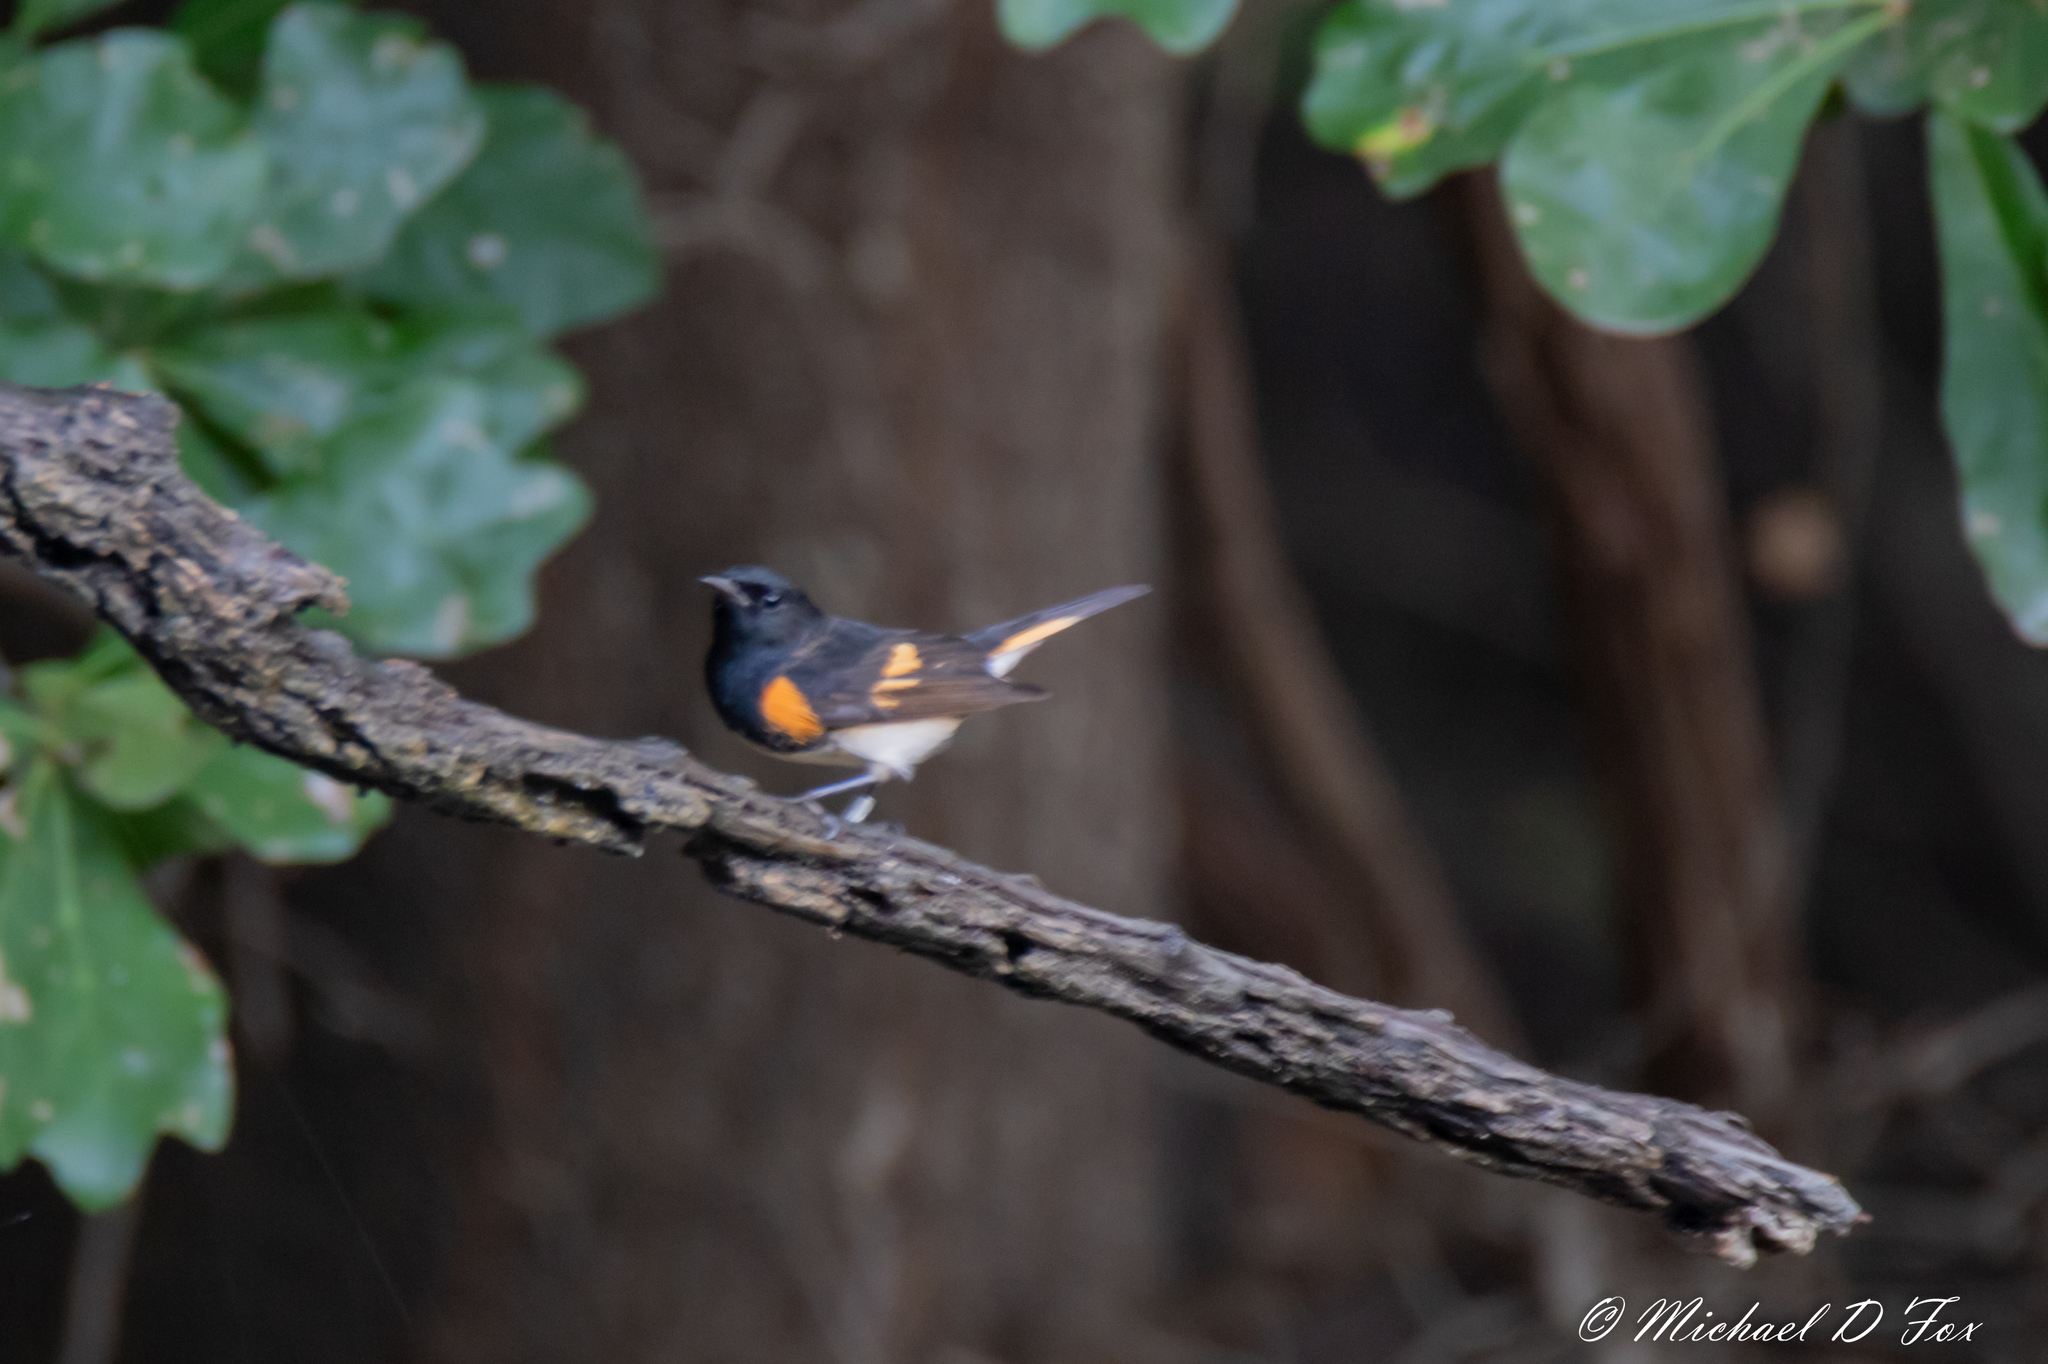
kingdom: Animalia
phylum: Chordata
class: Aves
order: Passeriformes
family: Parulidae
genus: Setophaga
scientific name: Setophaga ruticilla
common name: American redstart
